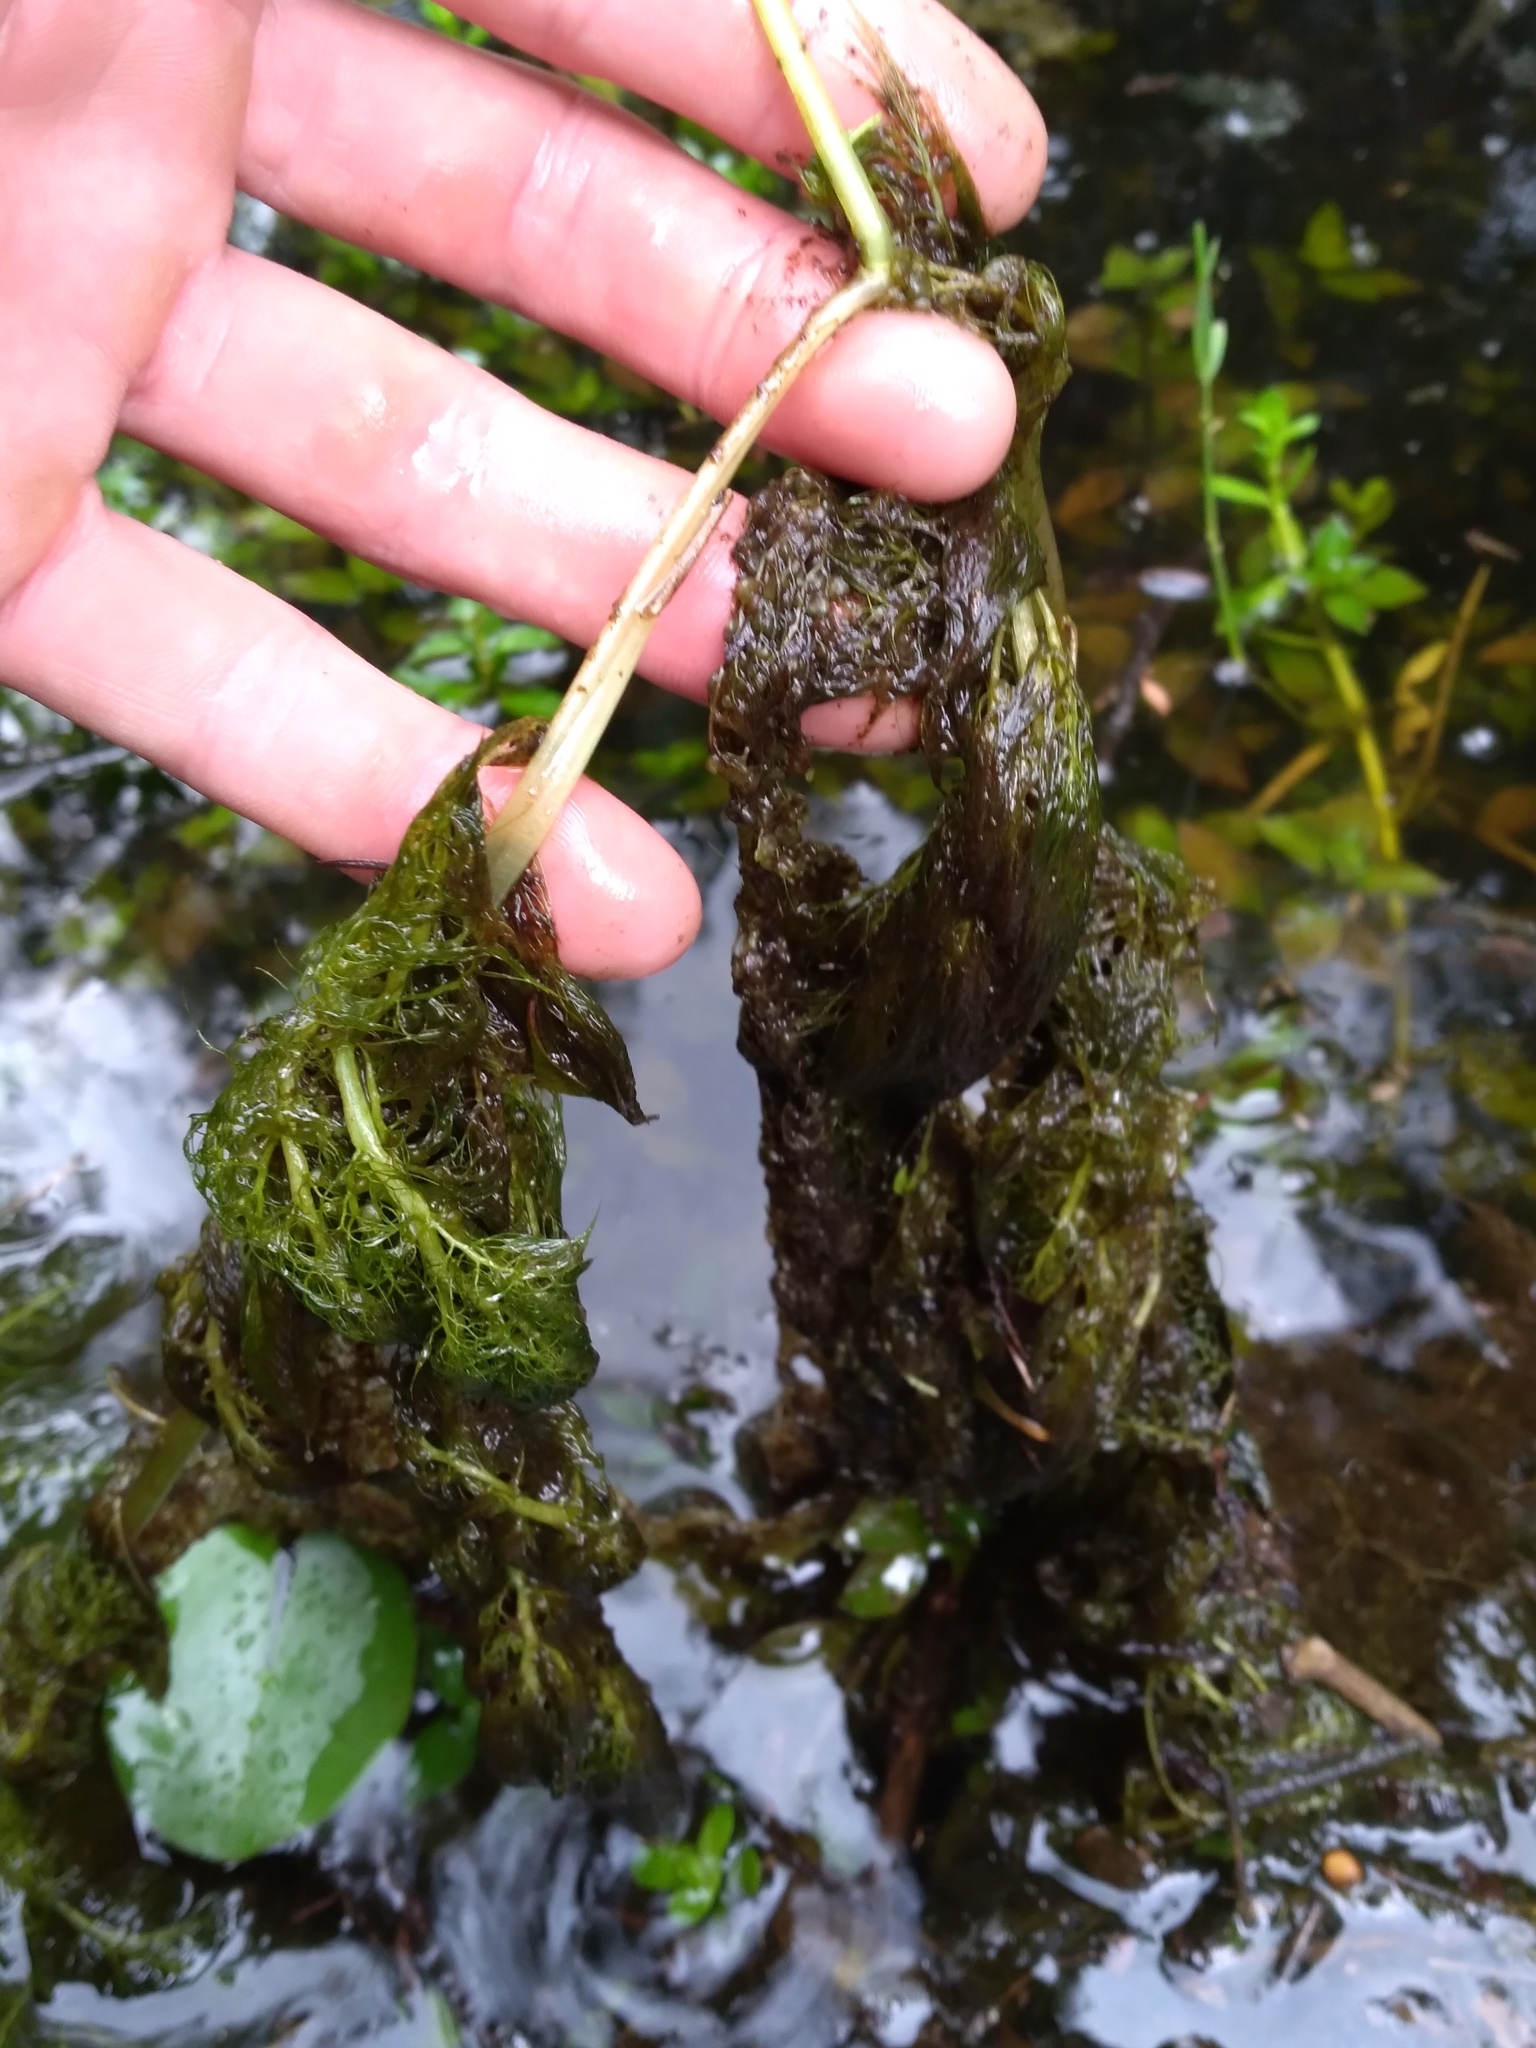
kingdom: Plantae
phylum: Tracheophyta
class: Magnoliopsida
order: Lamiales
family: Lentibulariaceae
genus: Utricularia
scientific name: Utricularia foliosa
